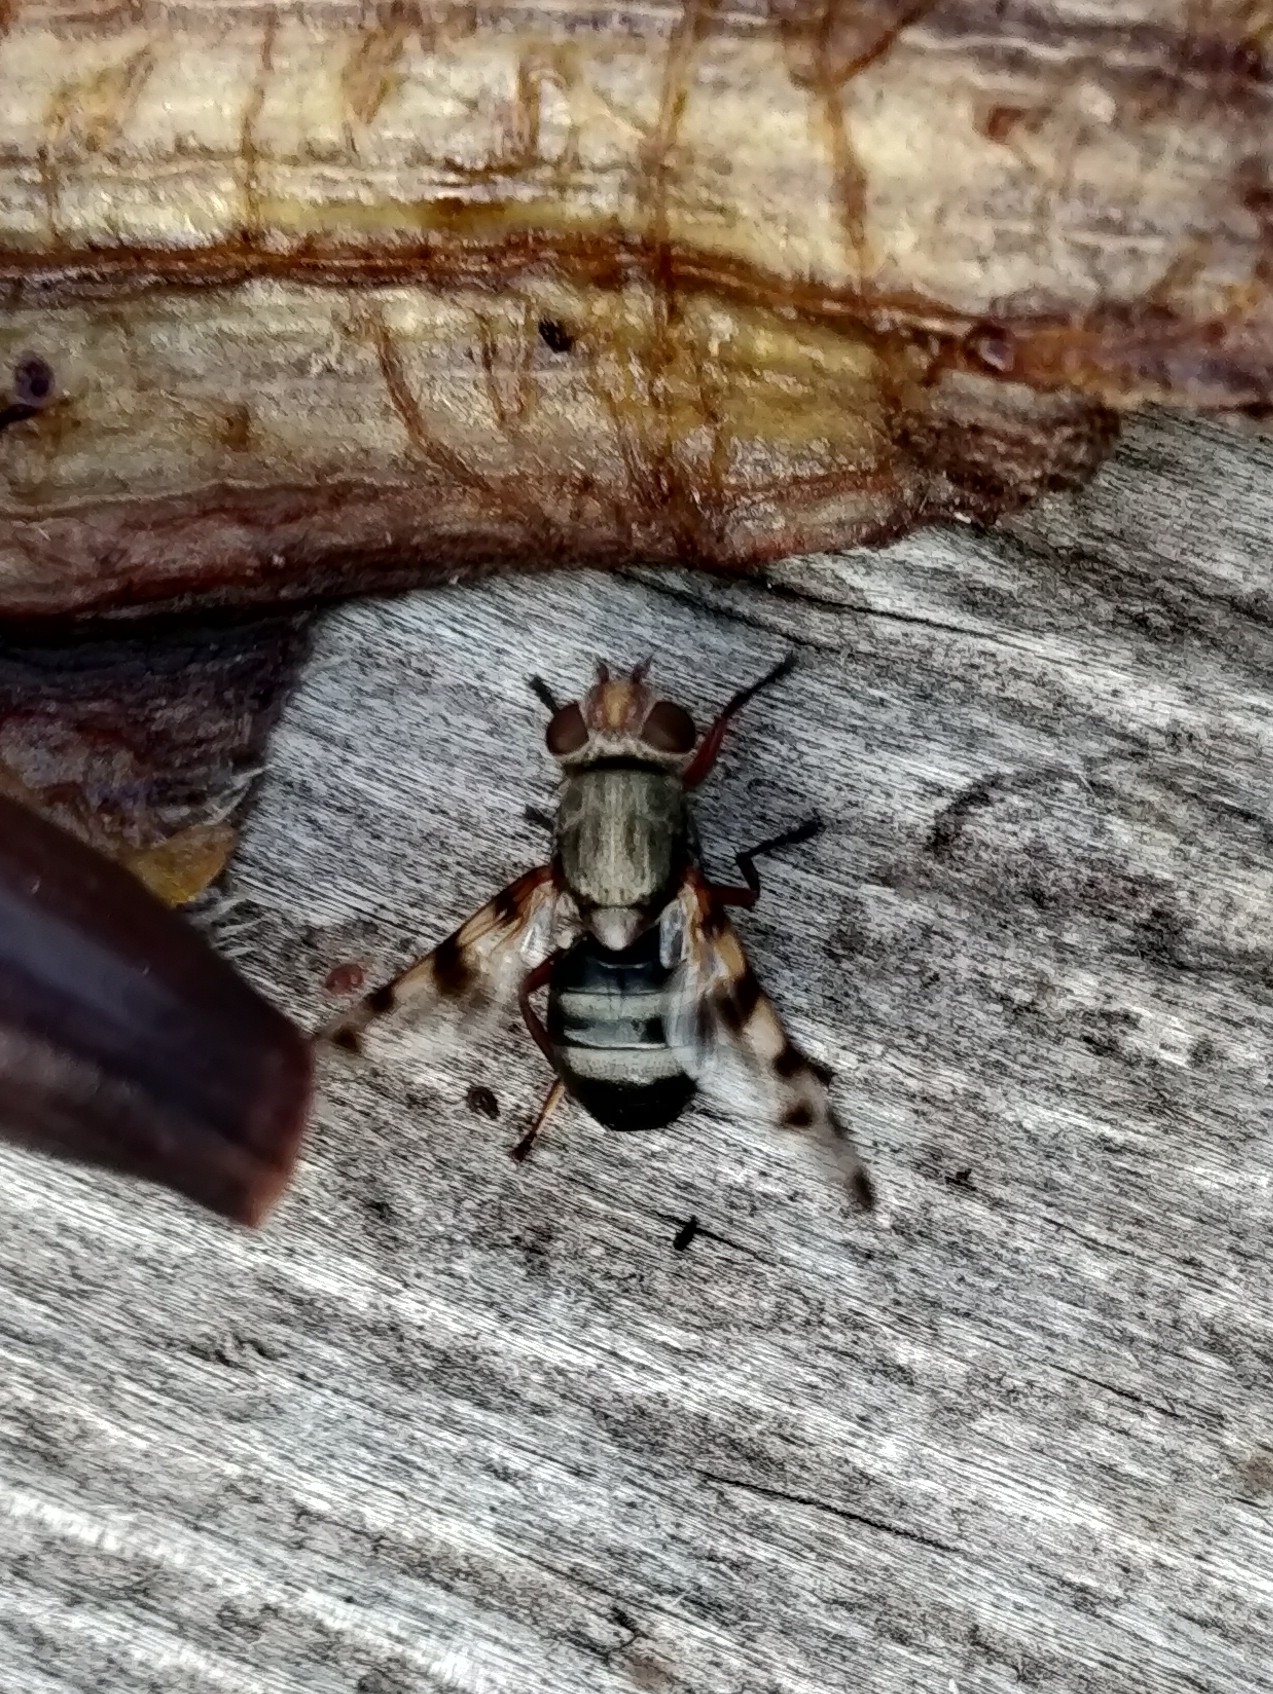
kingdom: Animalia
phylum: Arthropoda
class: Insecta
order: Diptera
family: Ulidiidae
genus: Ceroxys
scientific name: Ceroxys latiusculus
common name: Picture-winged fly
